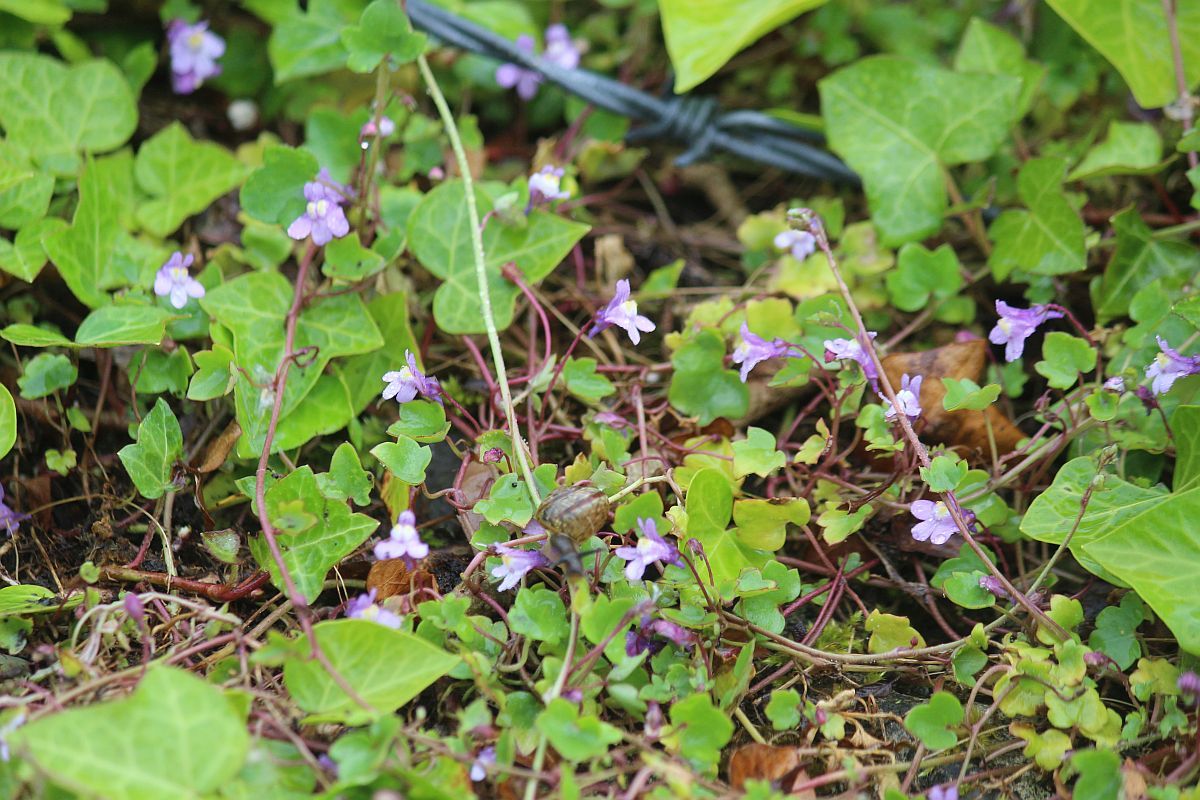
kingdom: Plantae
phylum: Tracheophyta
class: Magnoliopsida
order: Lamiales
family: Plantaginaceae
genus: Cymbalaria
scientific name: Cymbalaria muralis
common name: Ivy-leaved toadflax
